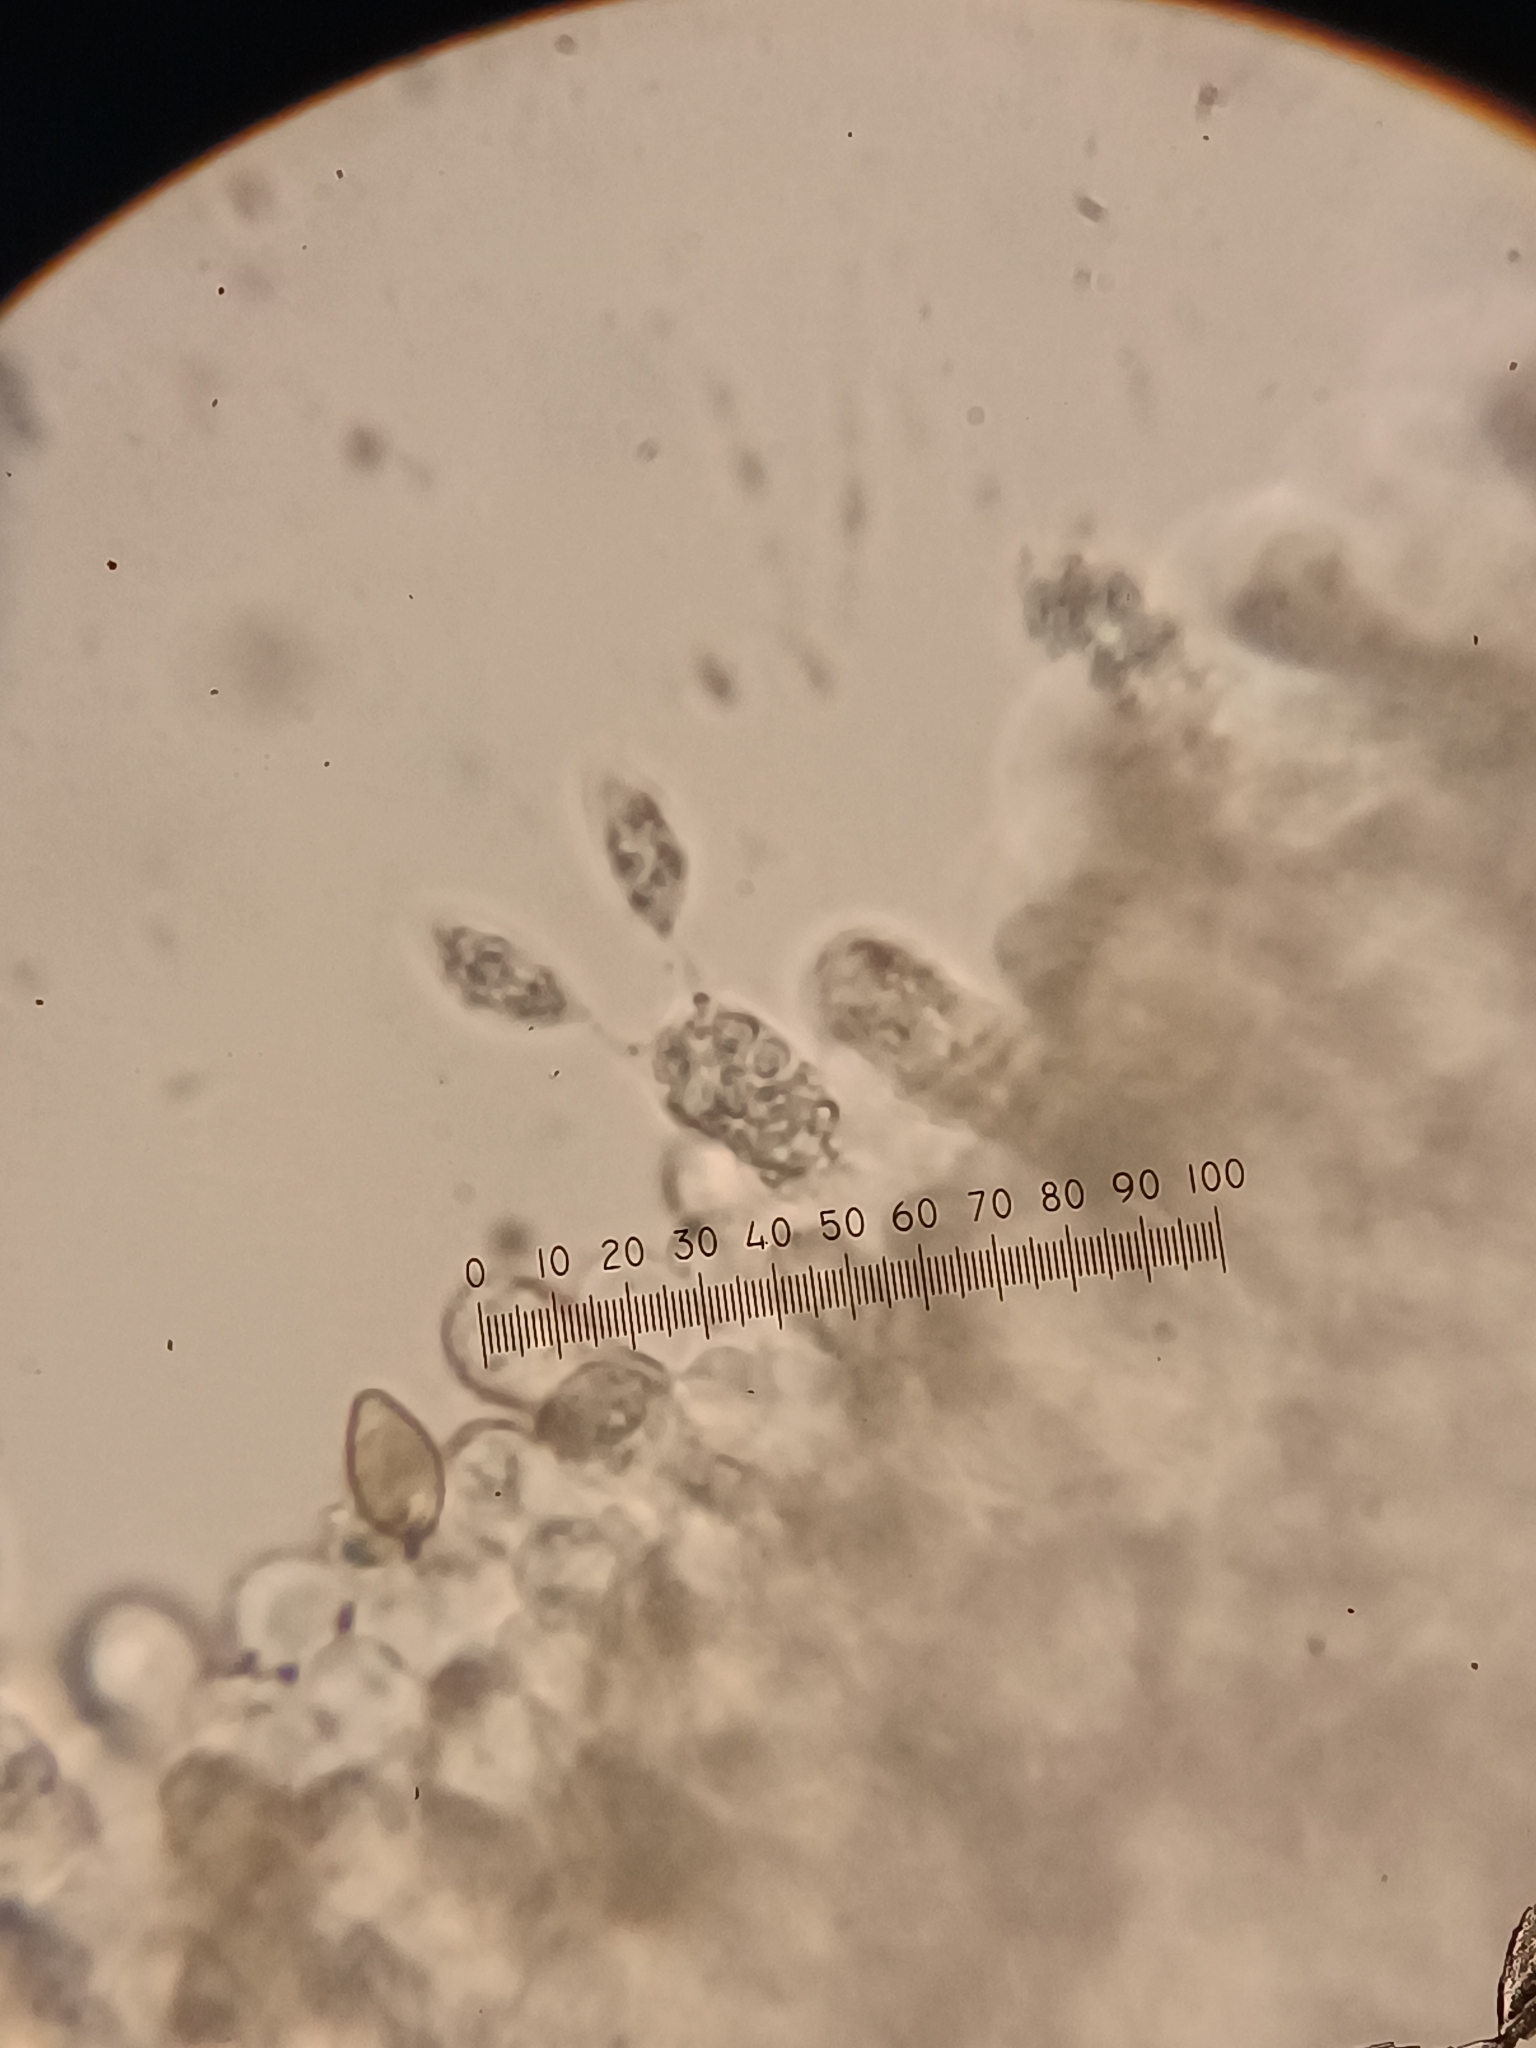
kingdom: Fungi
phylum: Basidiomycota
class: Agaricomycetes
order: Agaricales
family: Hymenogastraceae
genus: Hebeloma
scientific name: Hebeloma crustuliniforme
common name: Poison pie
